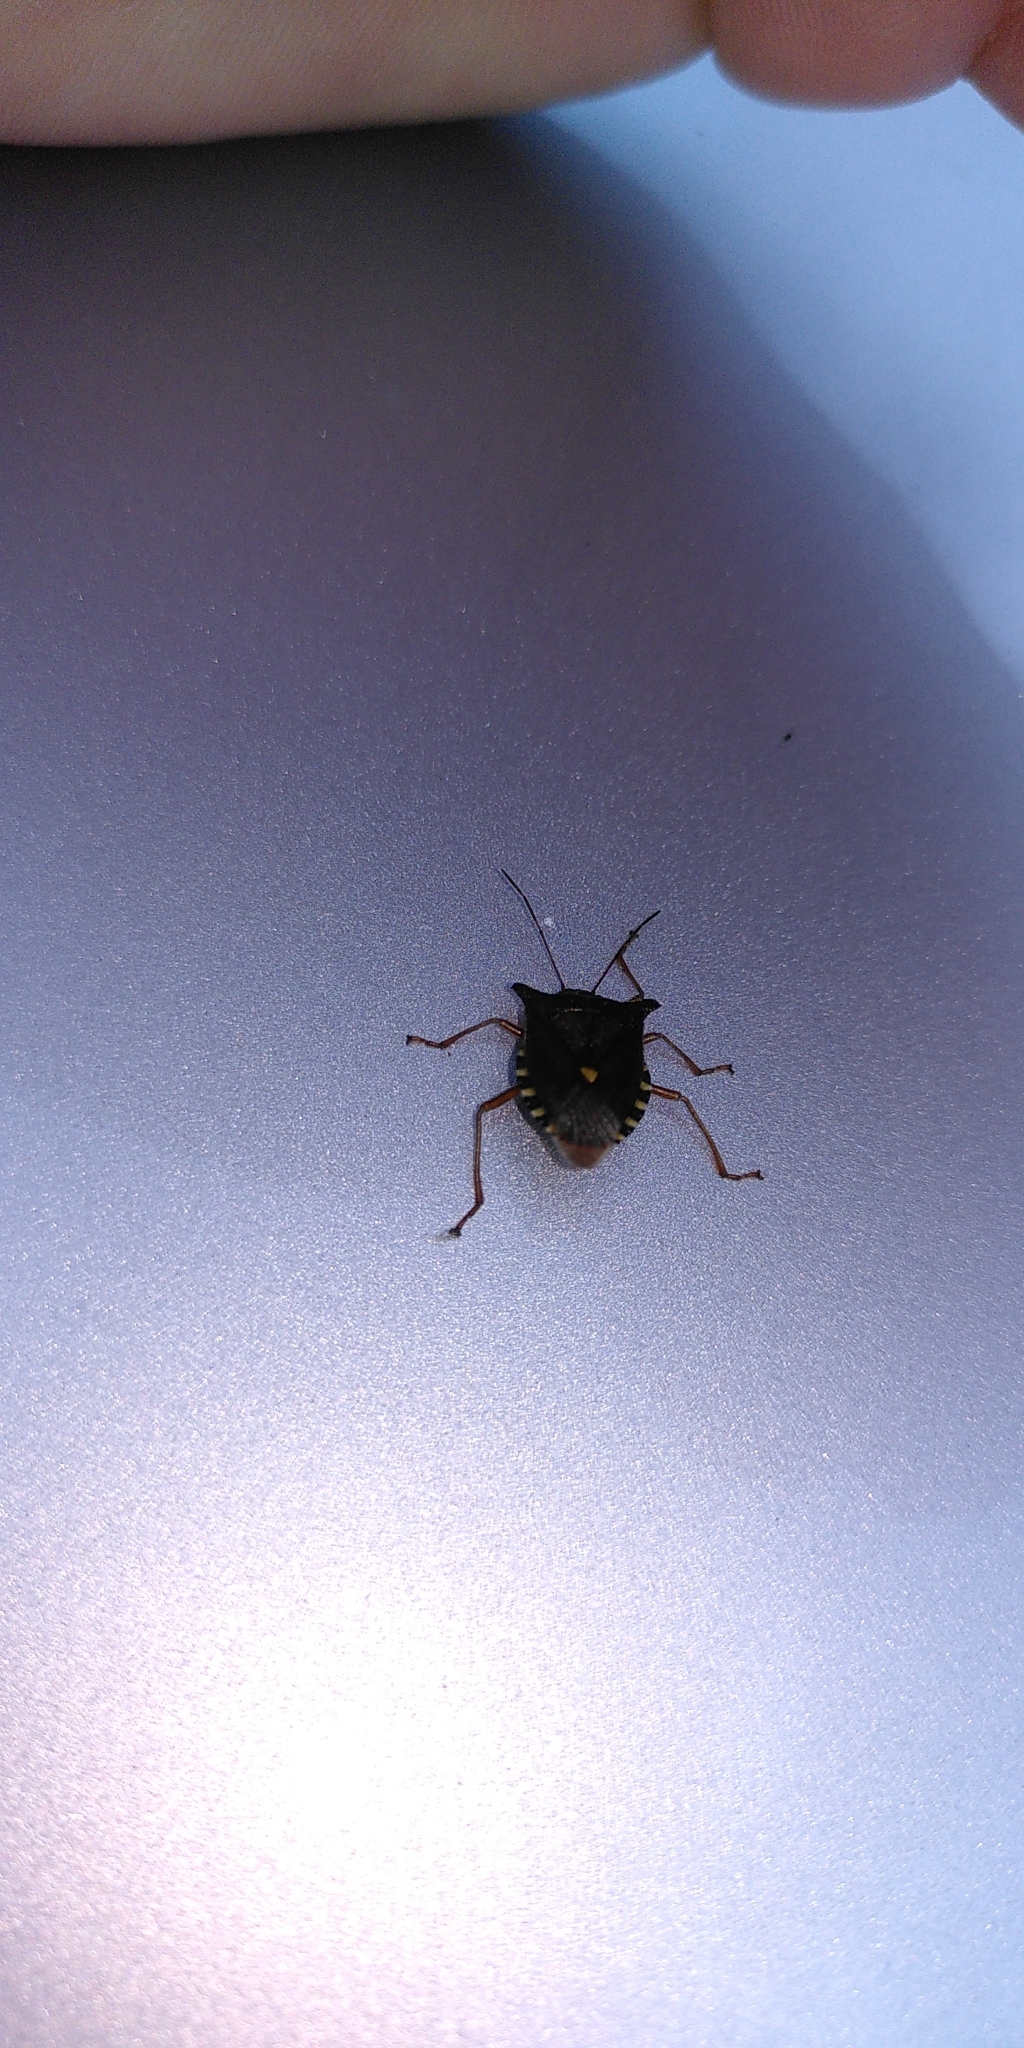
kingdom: Animalia
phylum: Arthropoda
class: Insecta
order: Hemiptera
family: Pentatomidae
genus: Pentatoma
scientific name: Pentatoma rufipes
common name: Forest bug
